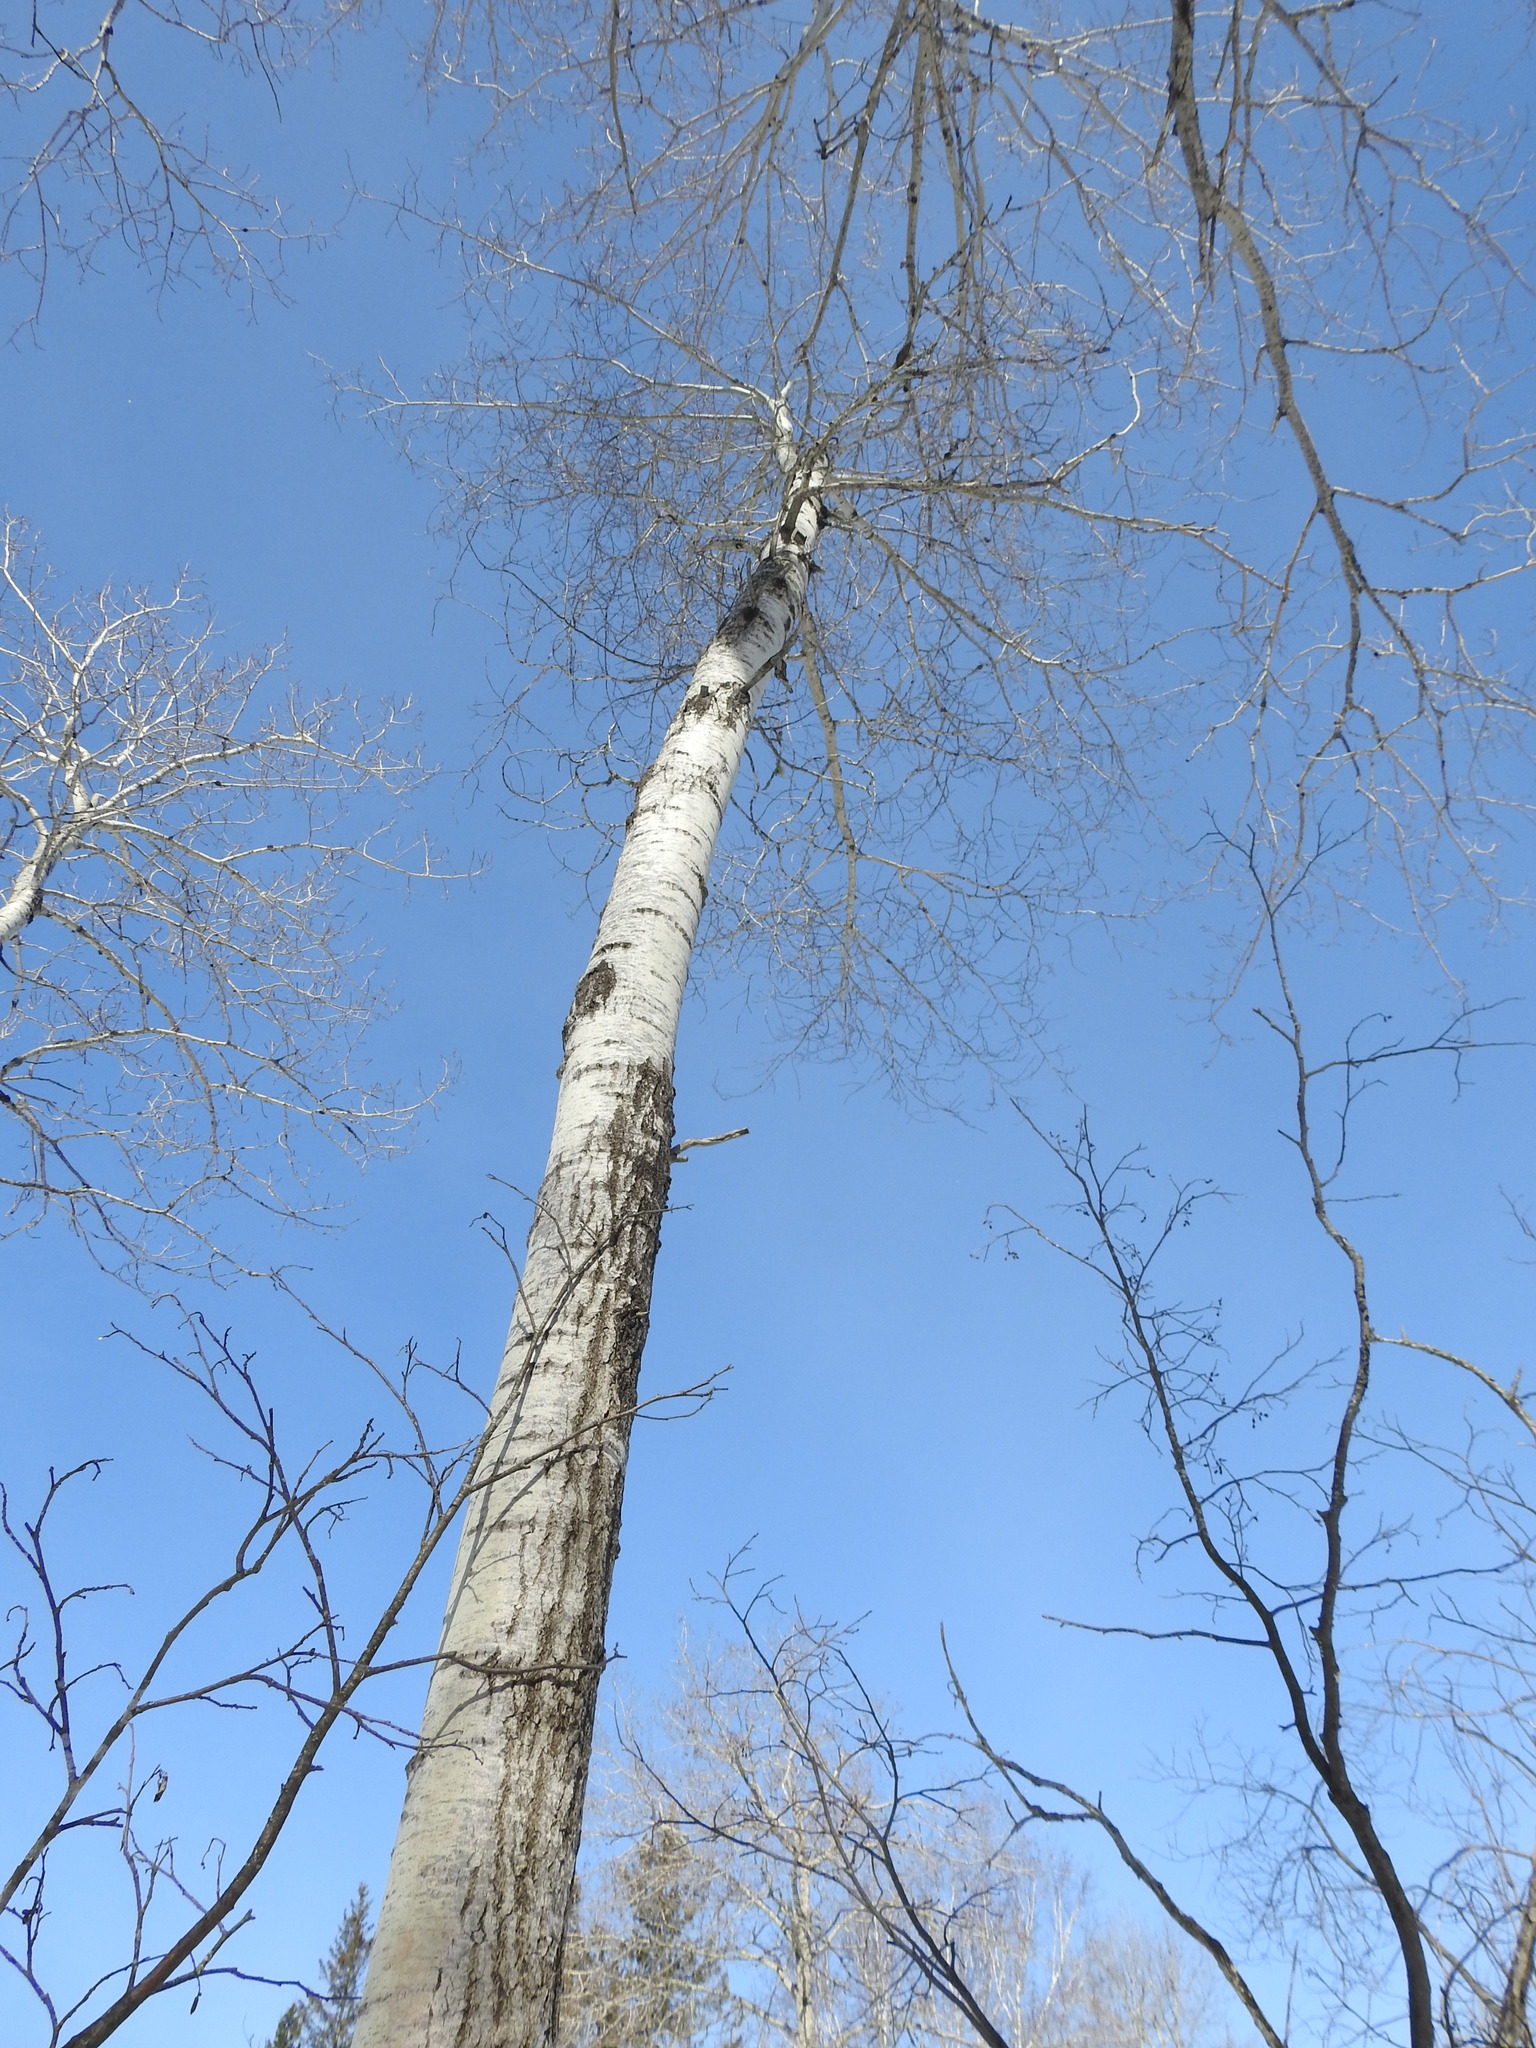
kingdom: Plantae
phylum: Tracheophyta
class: Magnoliopsida
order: Malpighiales
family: Salicaceae
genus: Populus
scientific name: Populus tremuloides
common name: Quaking aspen
